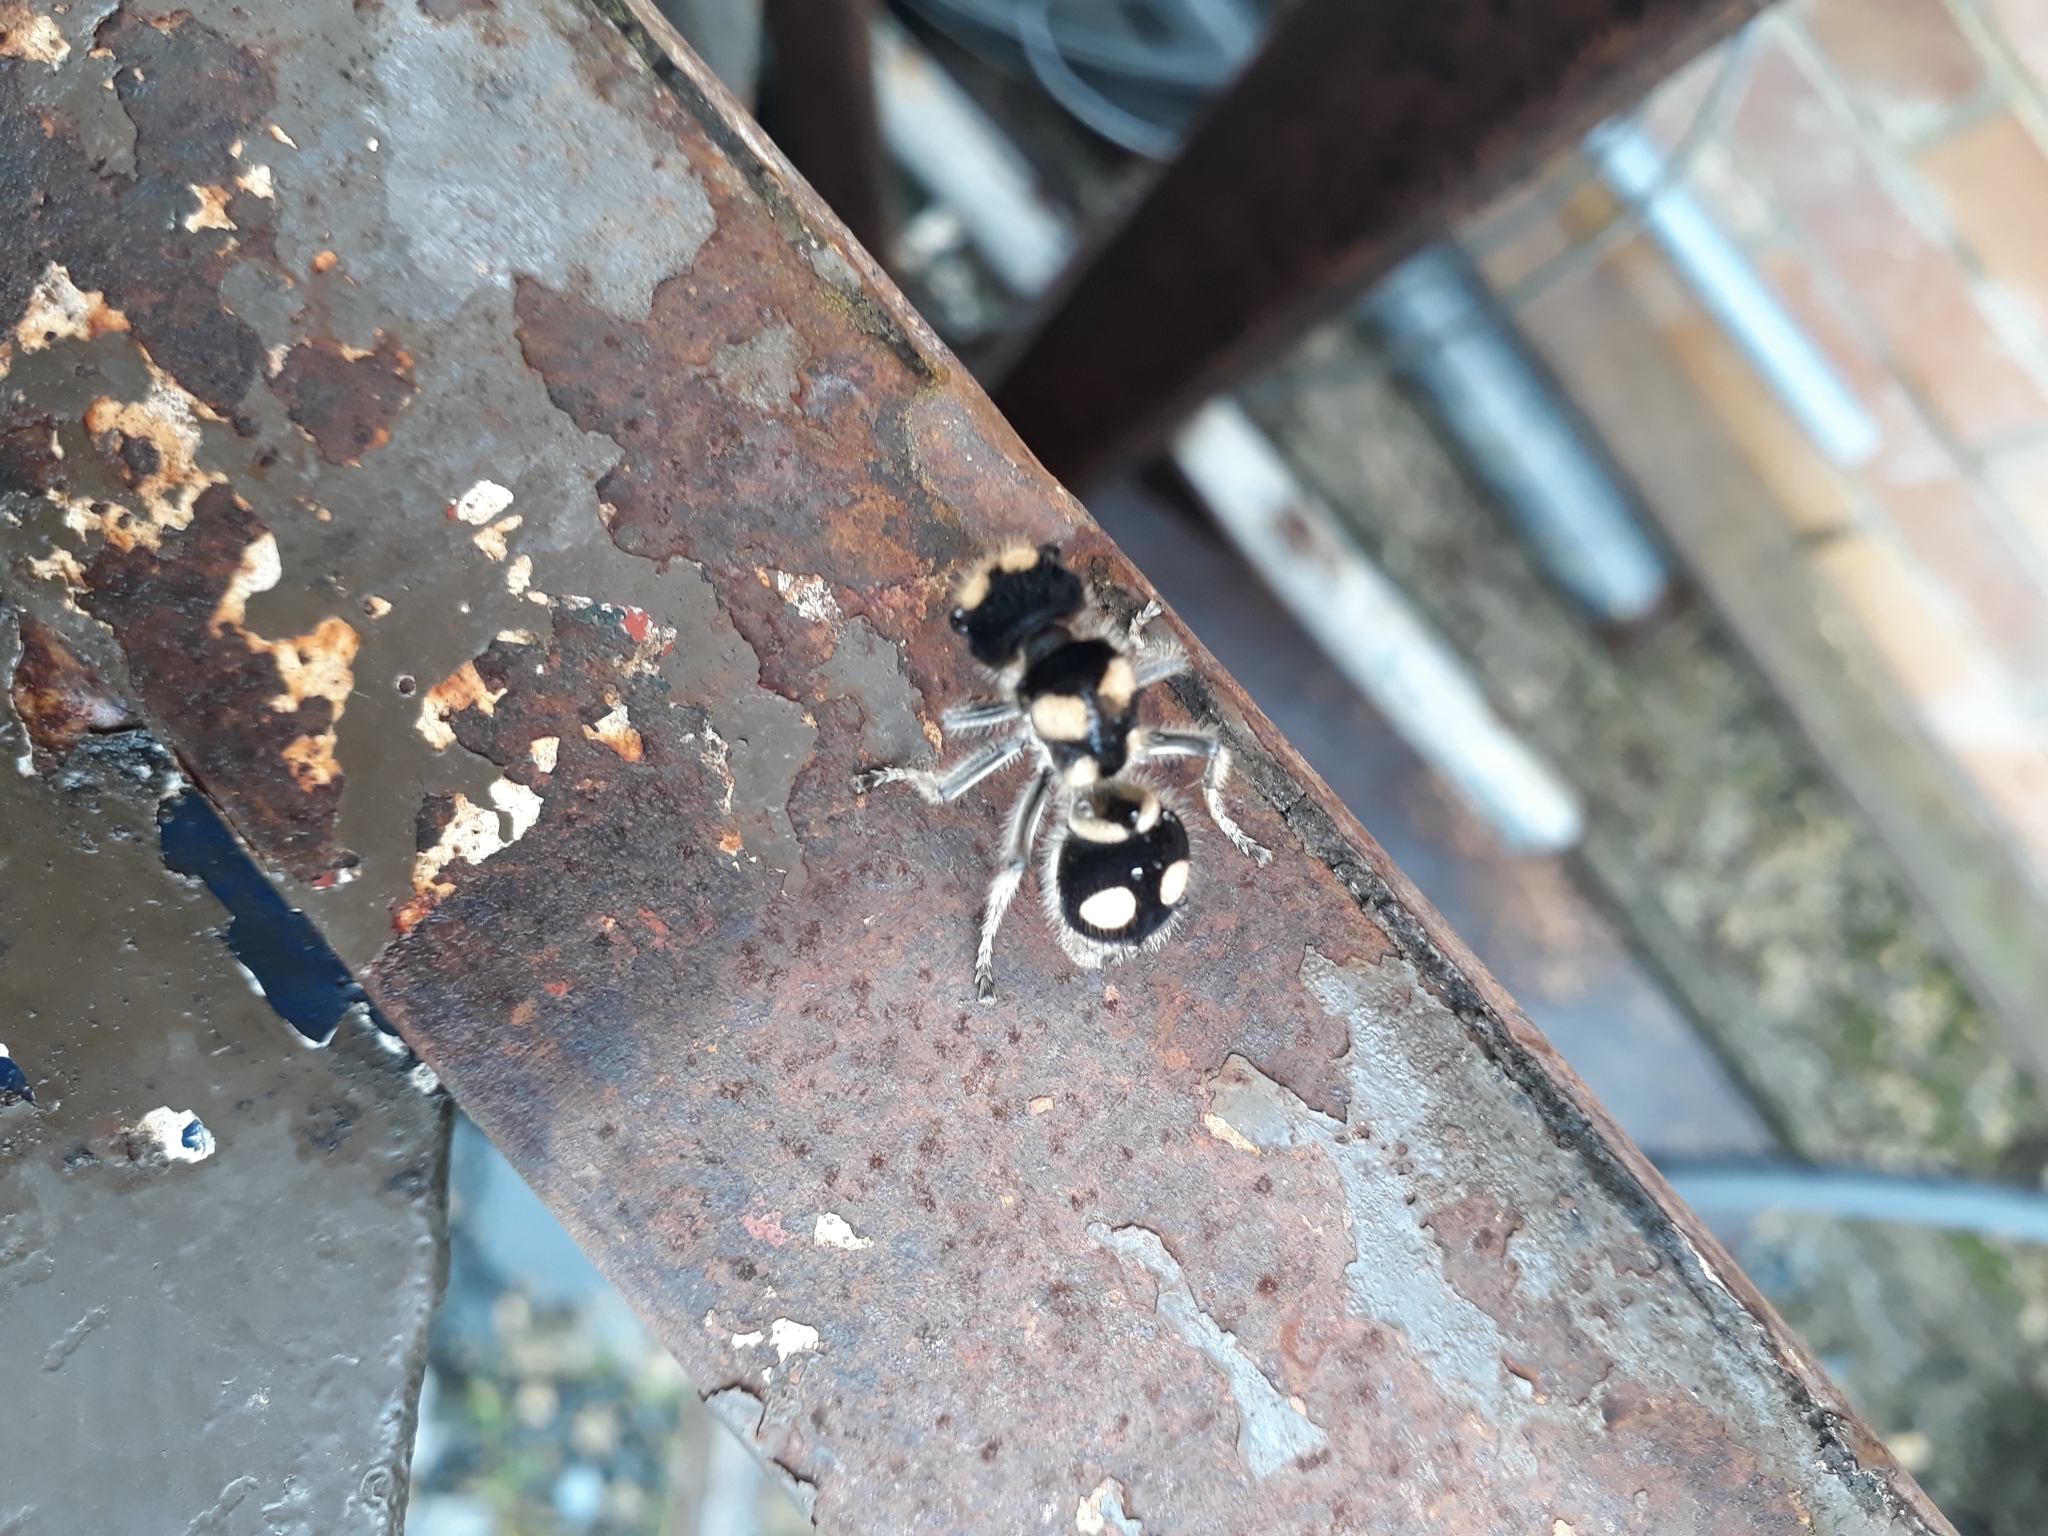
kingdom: Animalia
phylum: Arthropoda
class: Insecta
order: Hymenoptera
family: Mutillidae
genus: Hoplomutilla
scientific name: Hoplomutilla
